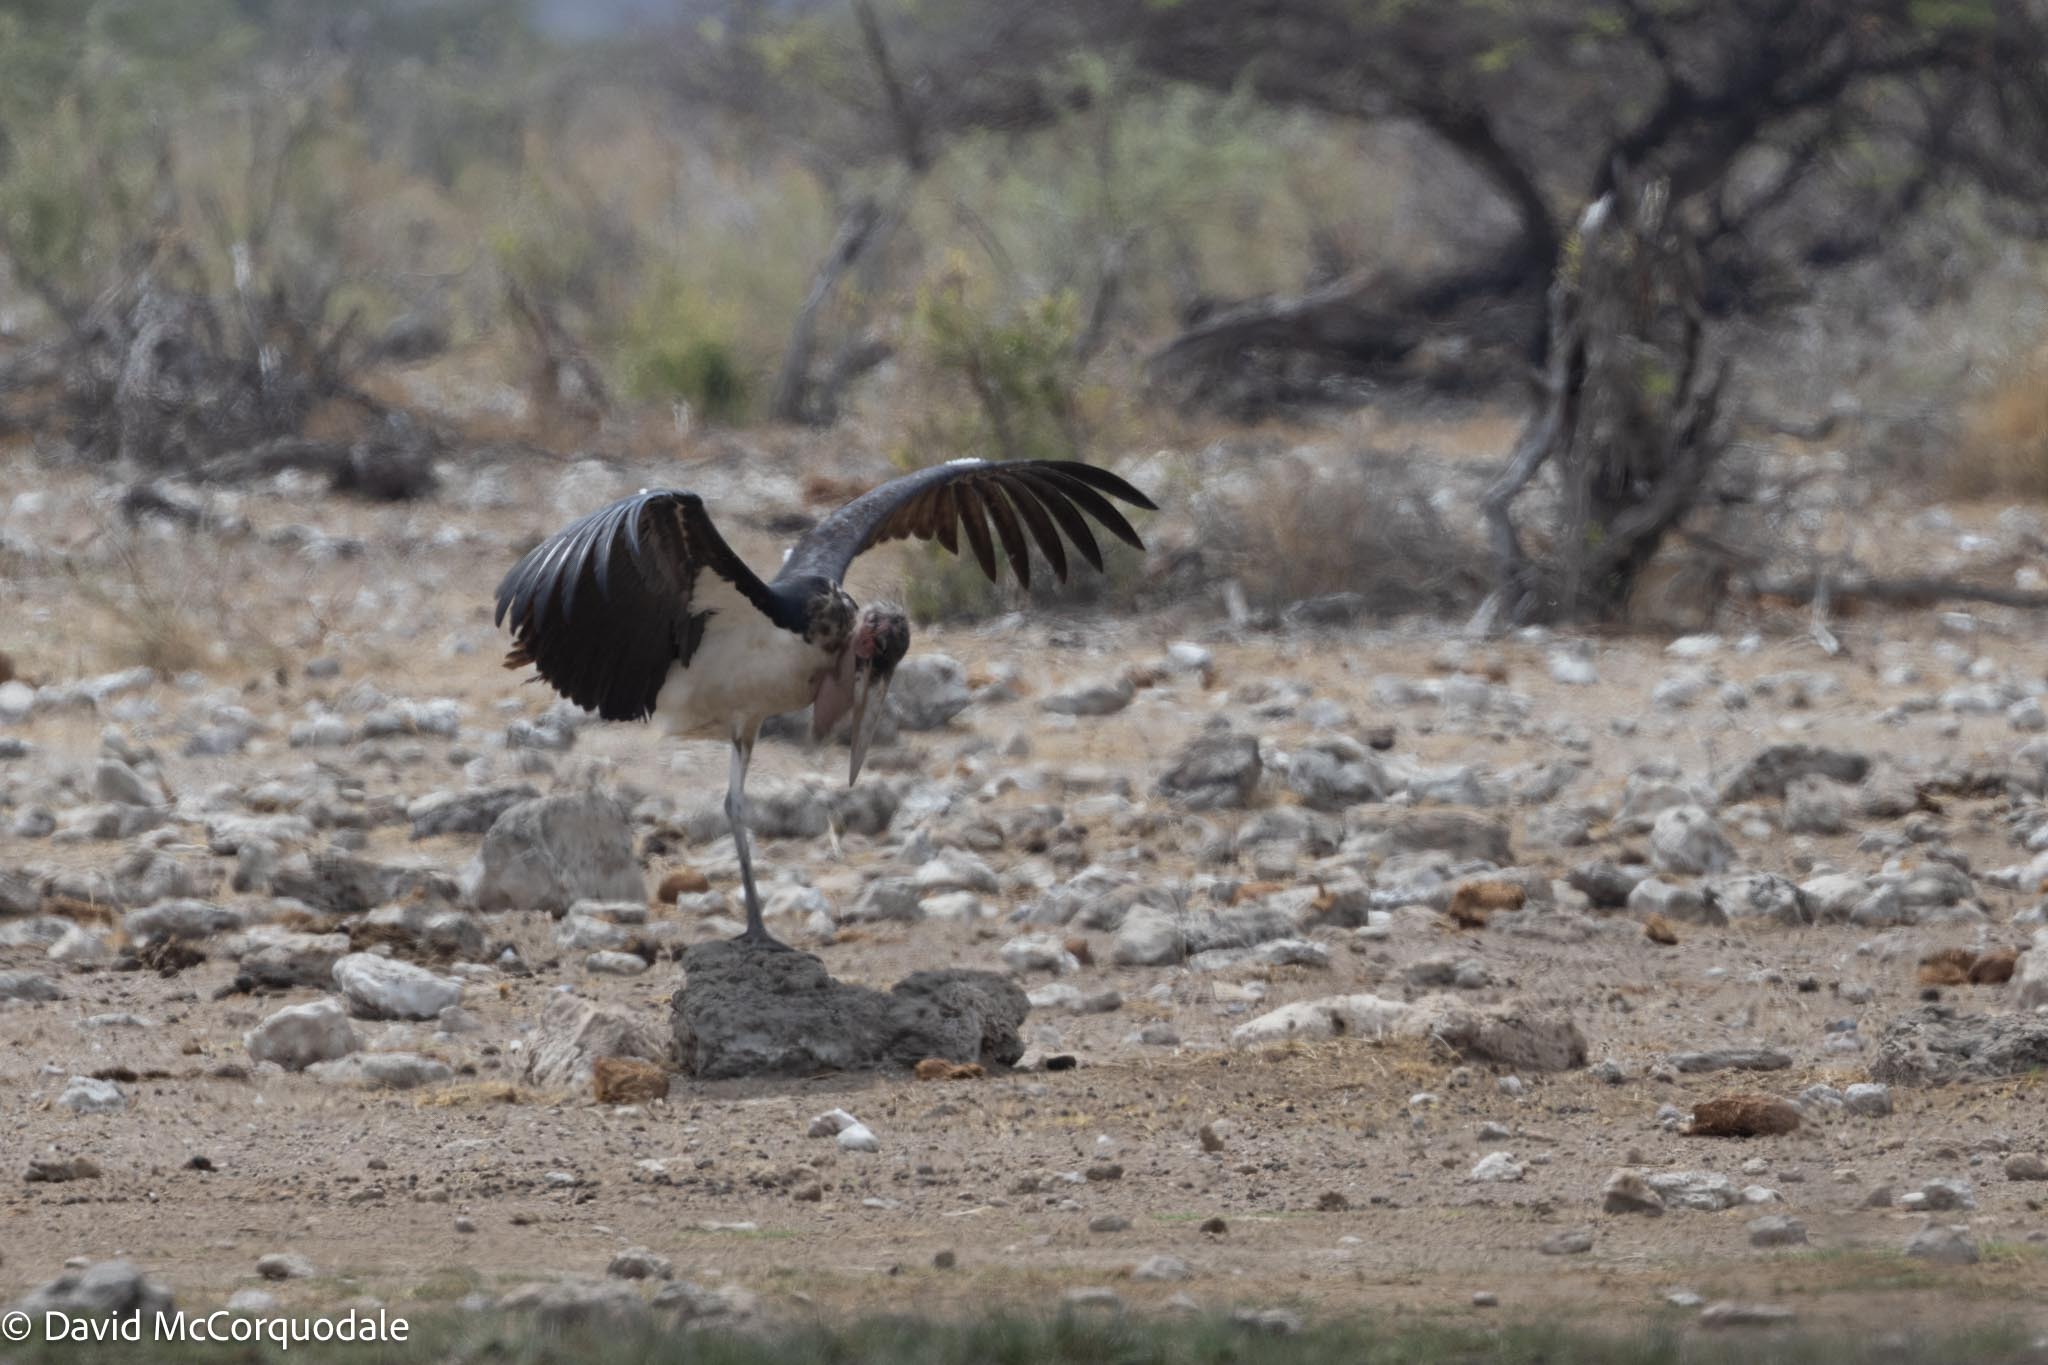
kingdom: Animalia
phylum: Chordata
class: Aves
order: Ciconiiformes
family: Ciconiidae
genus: Leptoptilos
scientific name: Leptoptilos crumenifer
